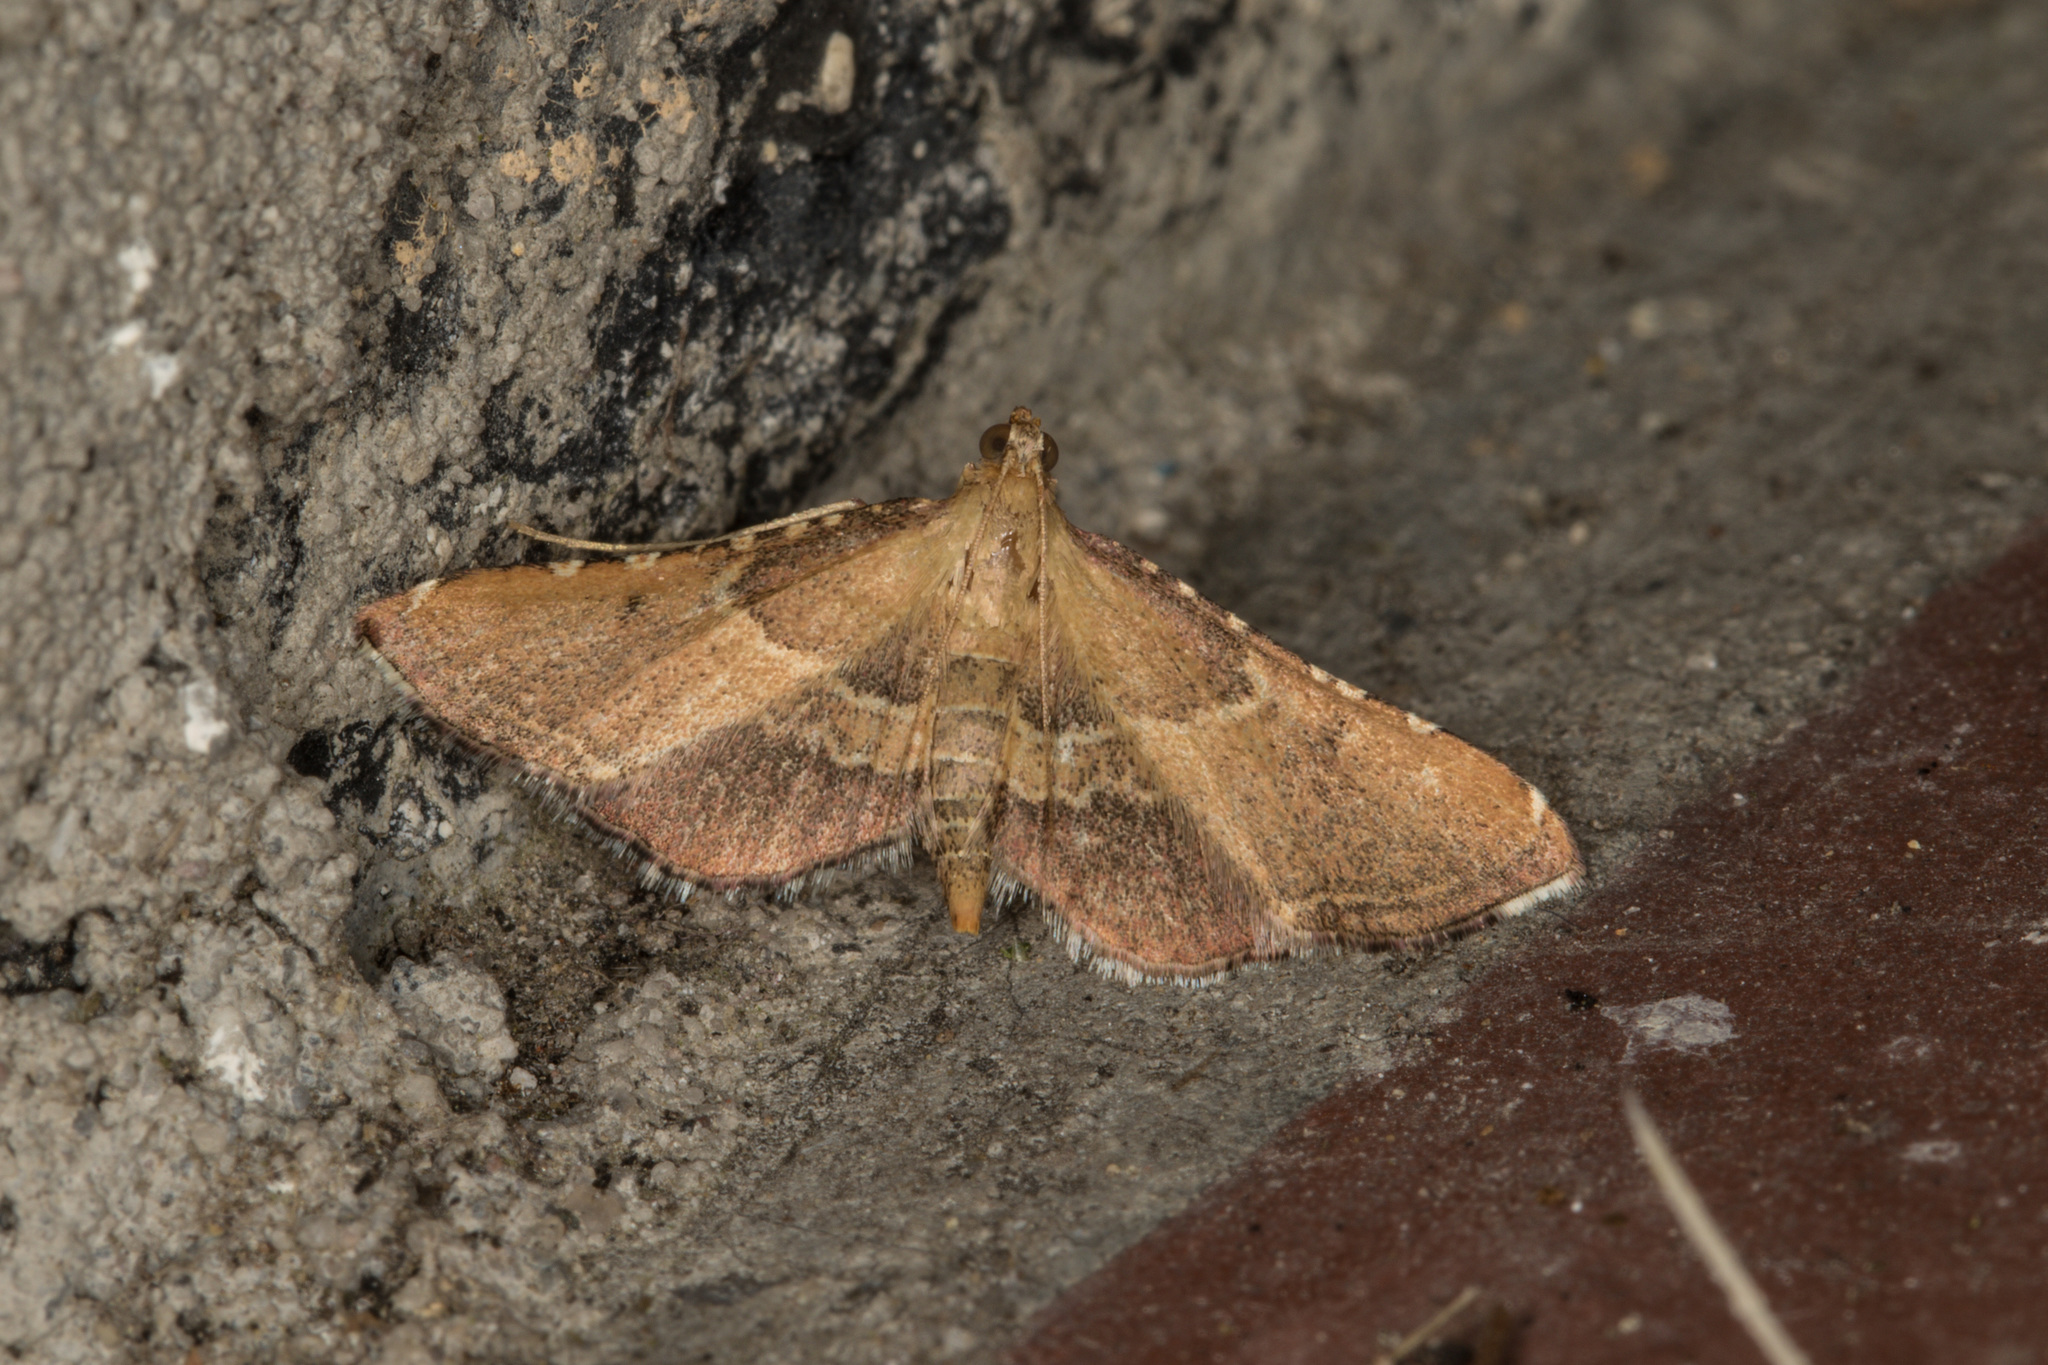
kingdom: Animalia
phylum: Arthropoda
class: Insecta
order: Lepidoptera
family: Pyralidae
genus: Endotricha
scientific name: Endotricha flammealis
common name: Rosy tabby
